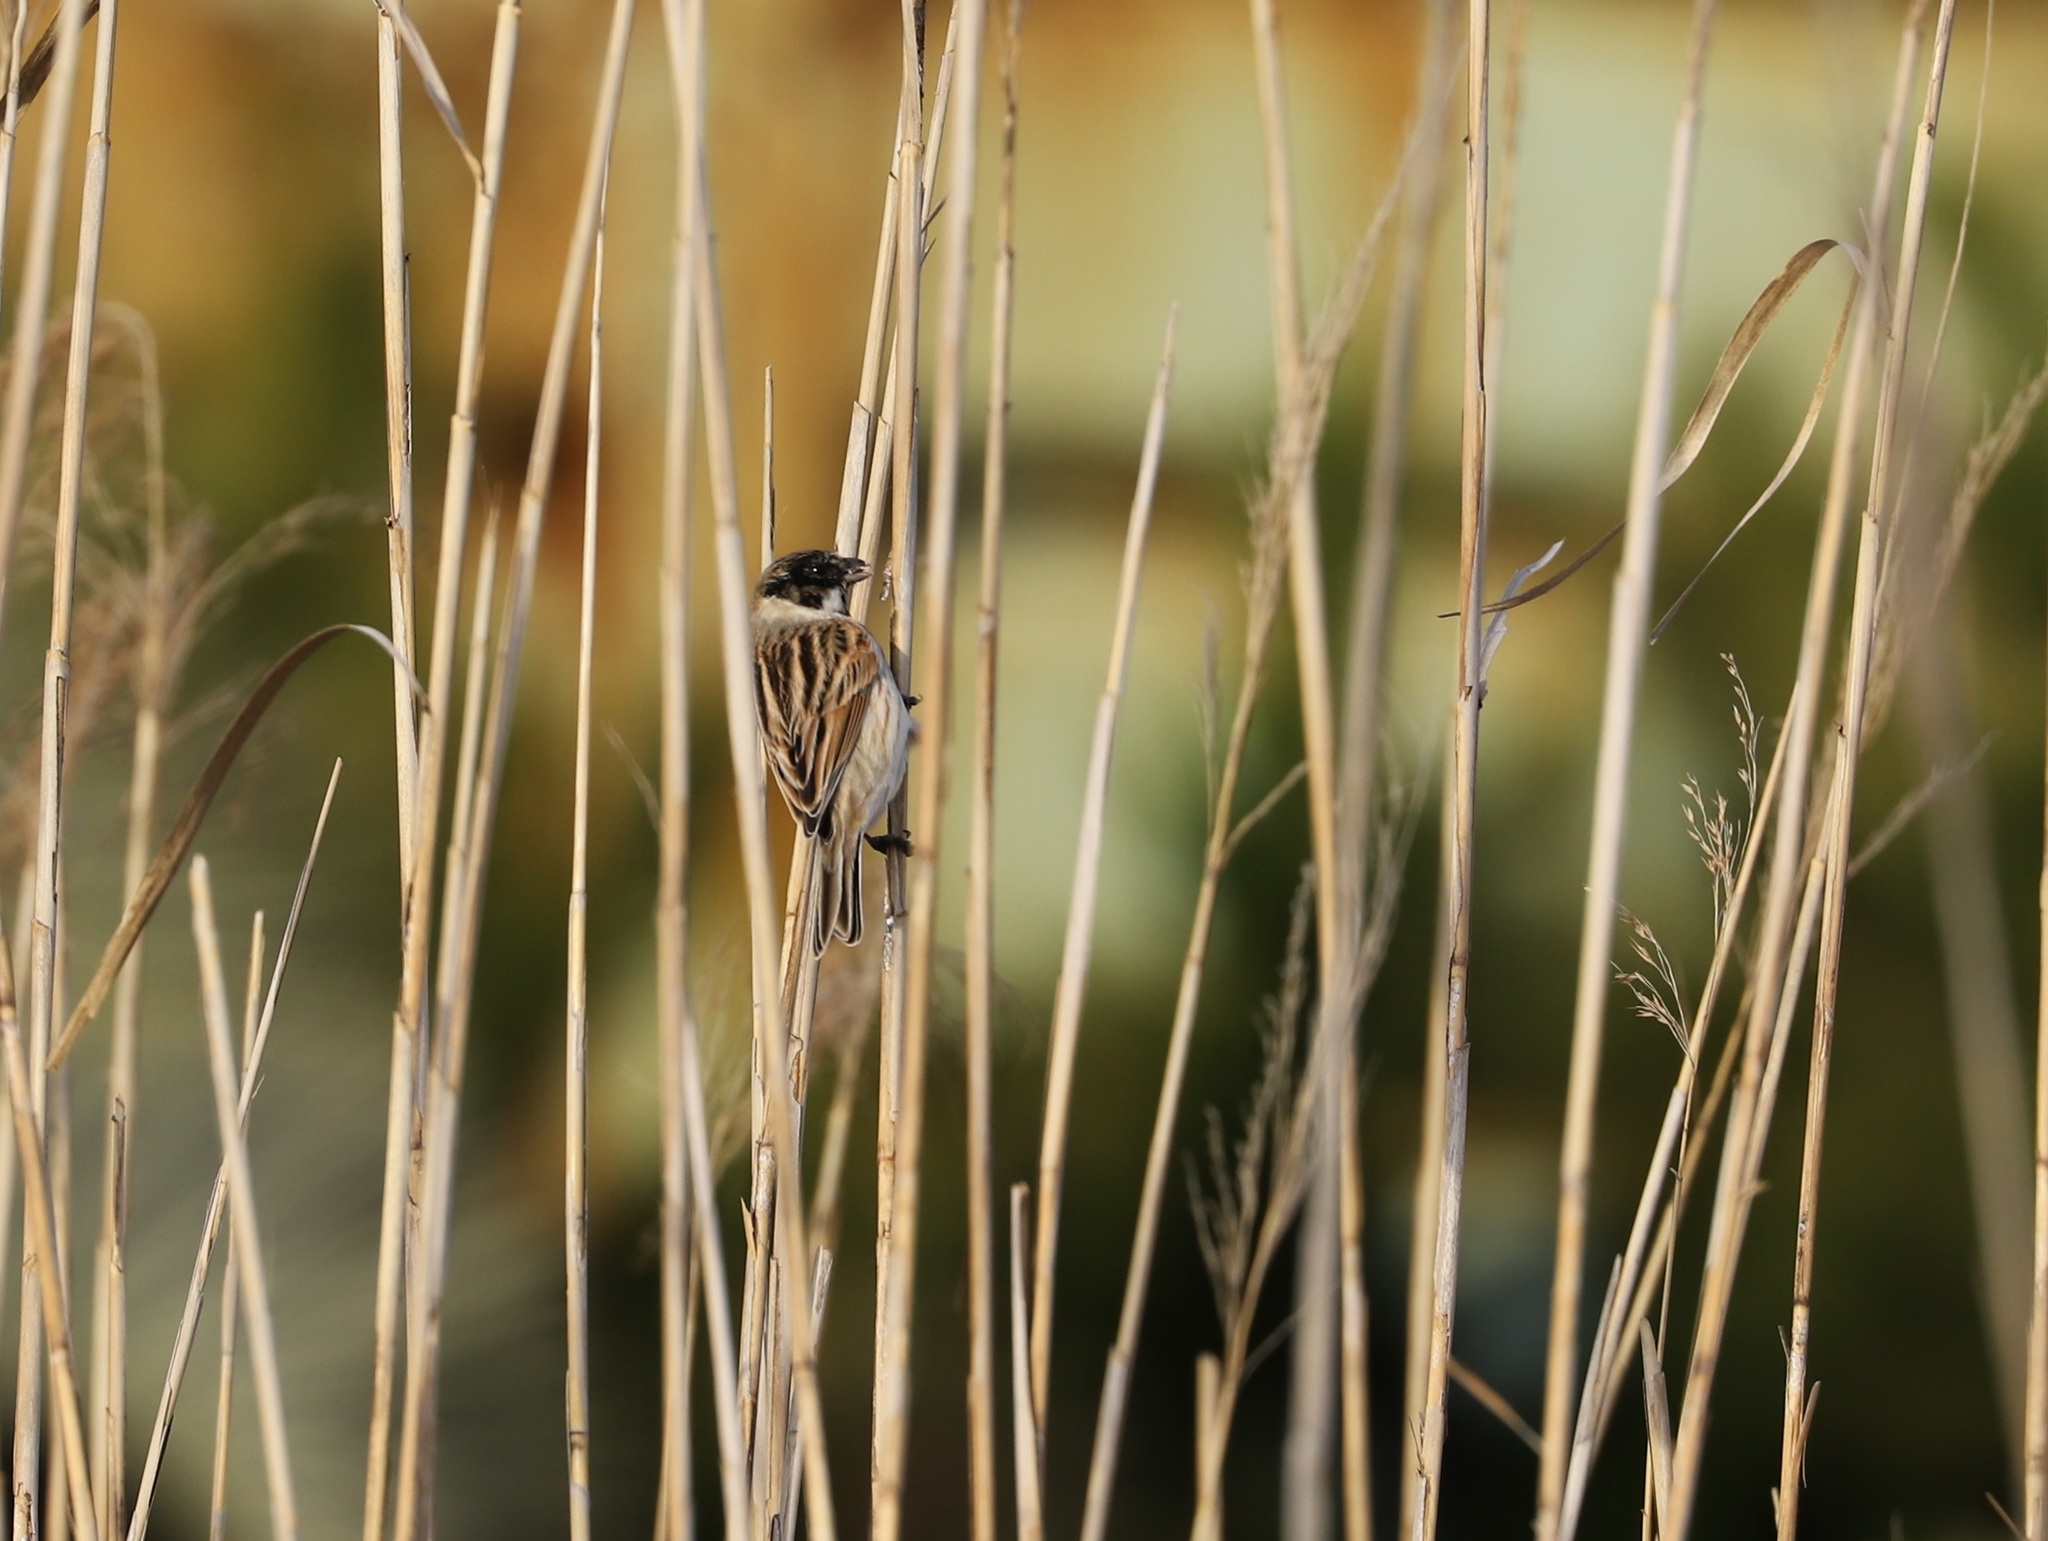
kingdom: Animalia
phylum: Chordata
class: Aves
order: Passeriformes
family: Emberizidae
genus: Emberiza
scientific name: Emberiza schoeniclus
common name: Reed bunting
